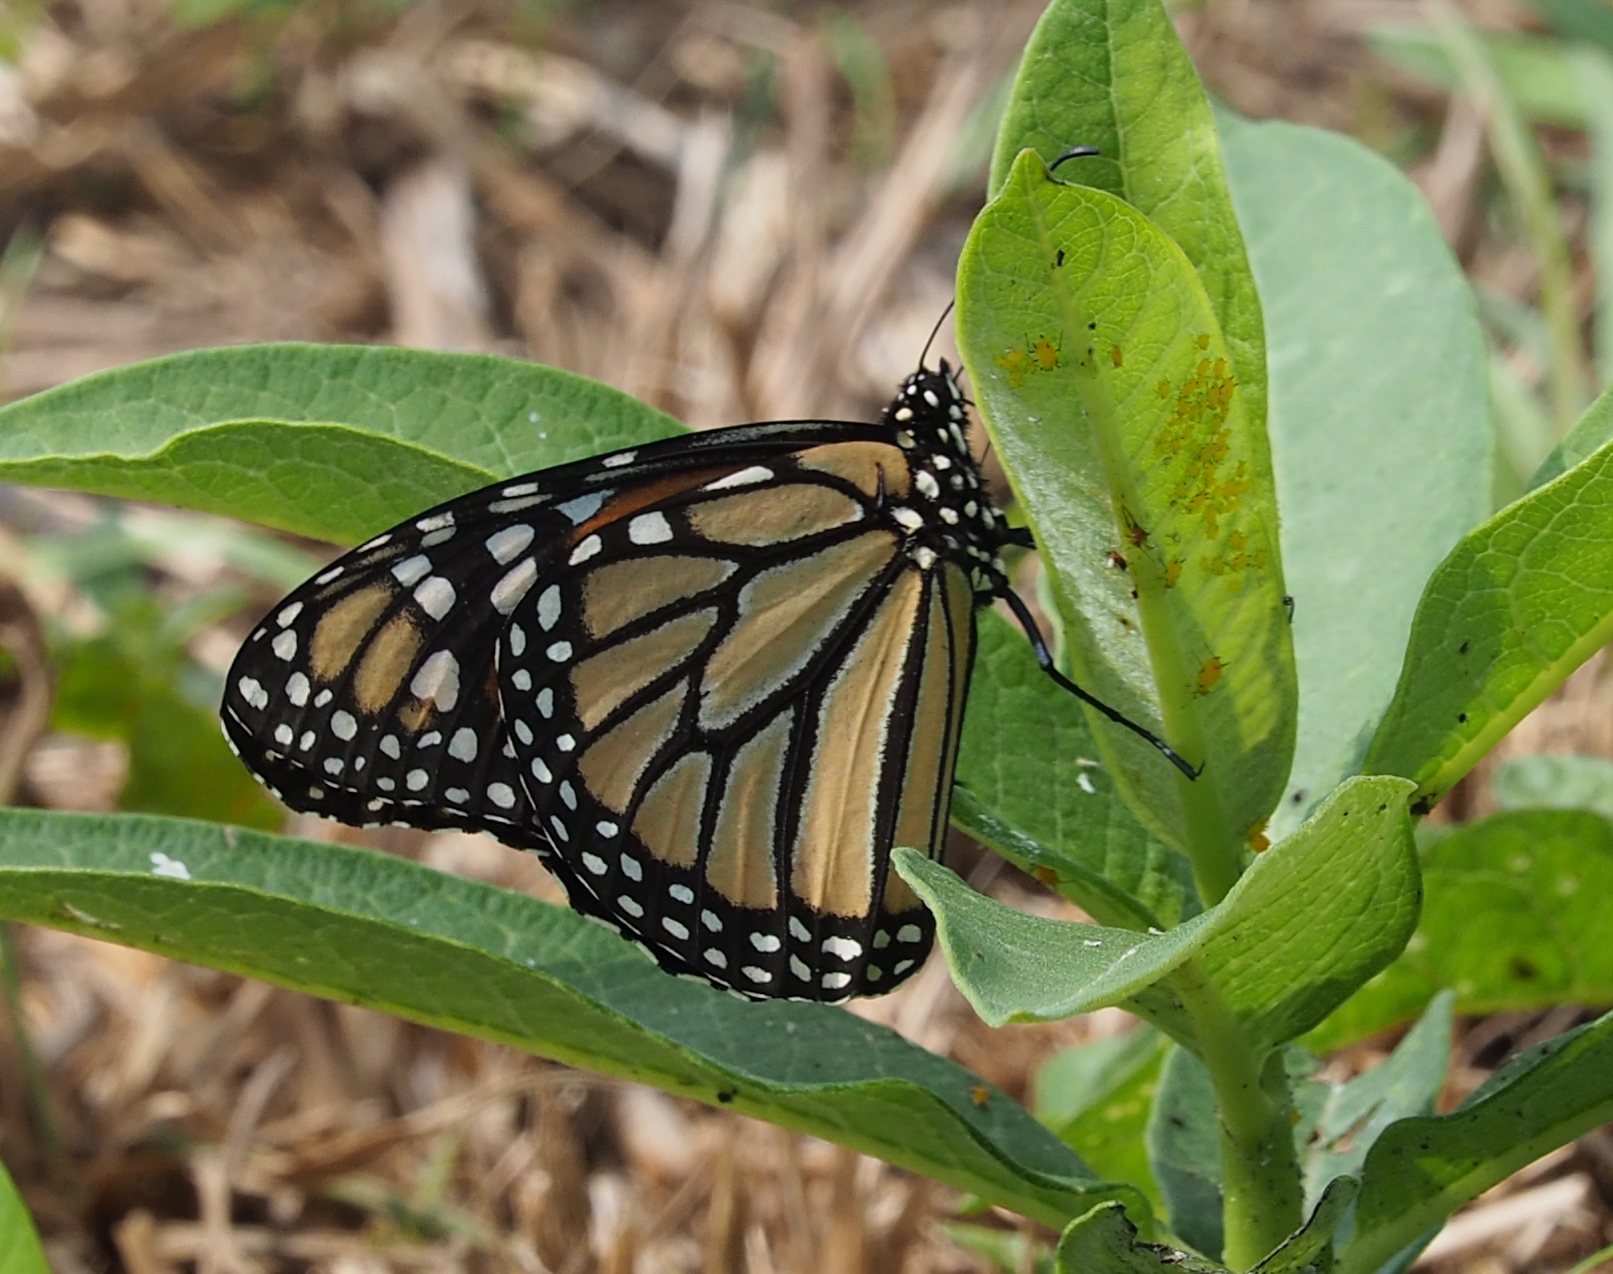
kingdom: Animalia
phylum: Arthropoda
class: Insecta
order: Lepidoptera
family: Nymphalidae
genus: Danaus
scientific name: Danaus plexippus
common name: Monarch
